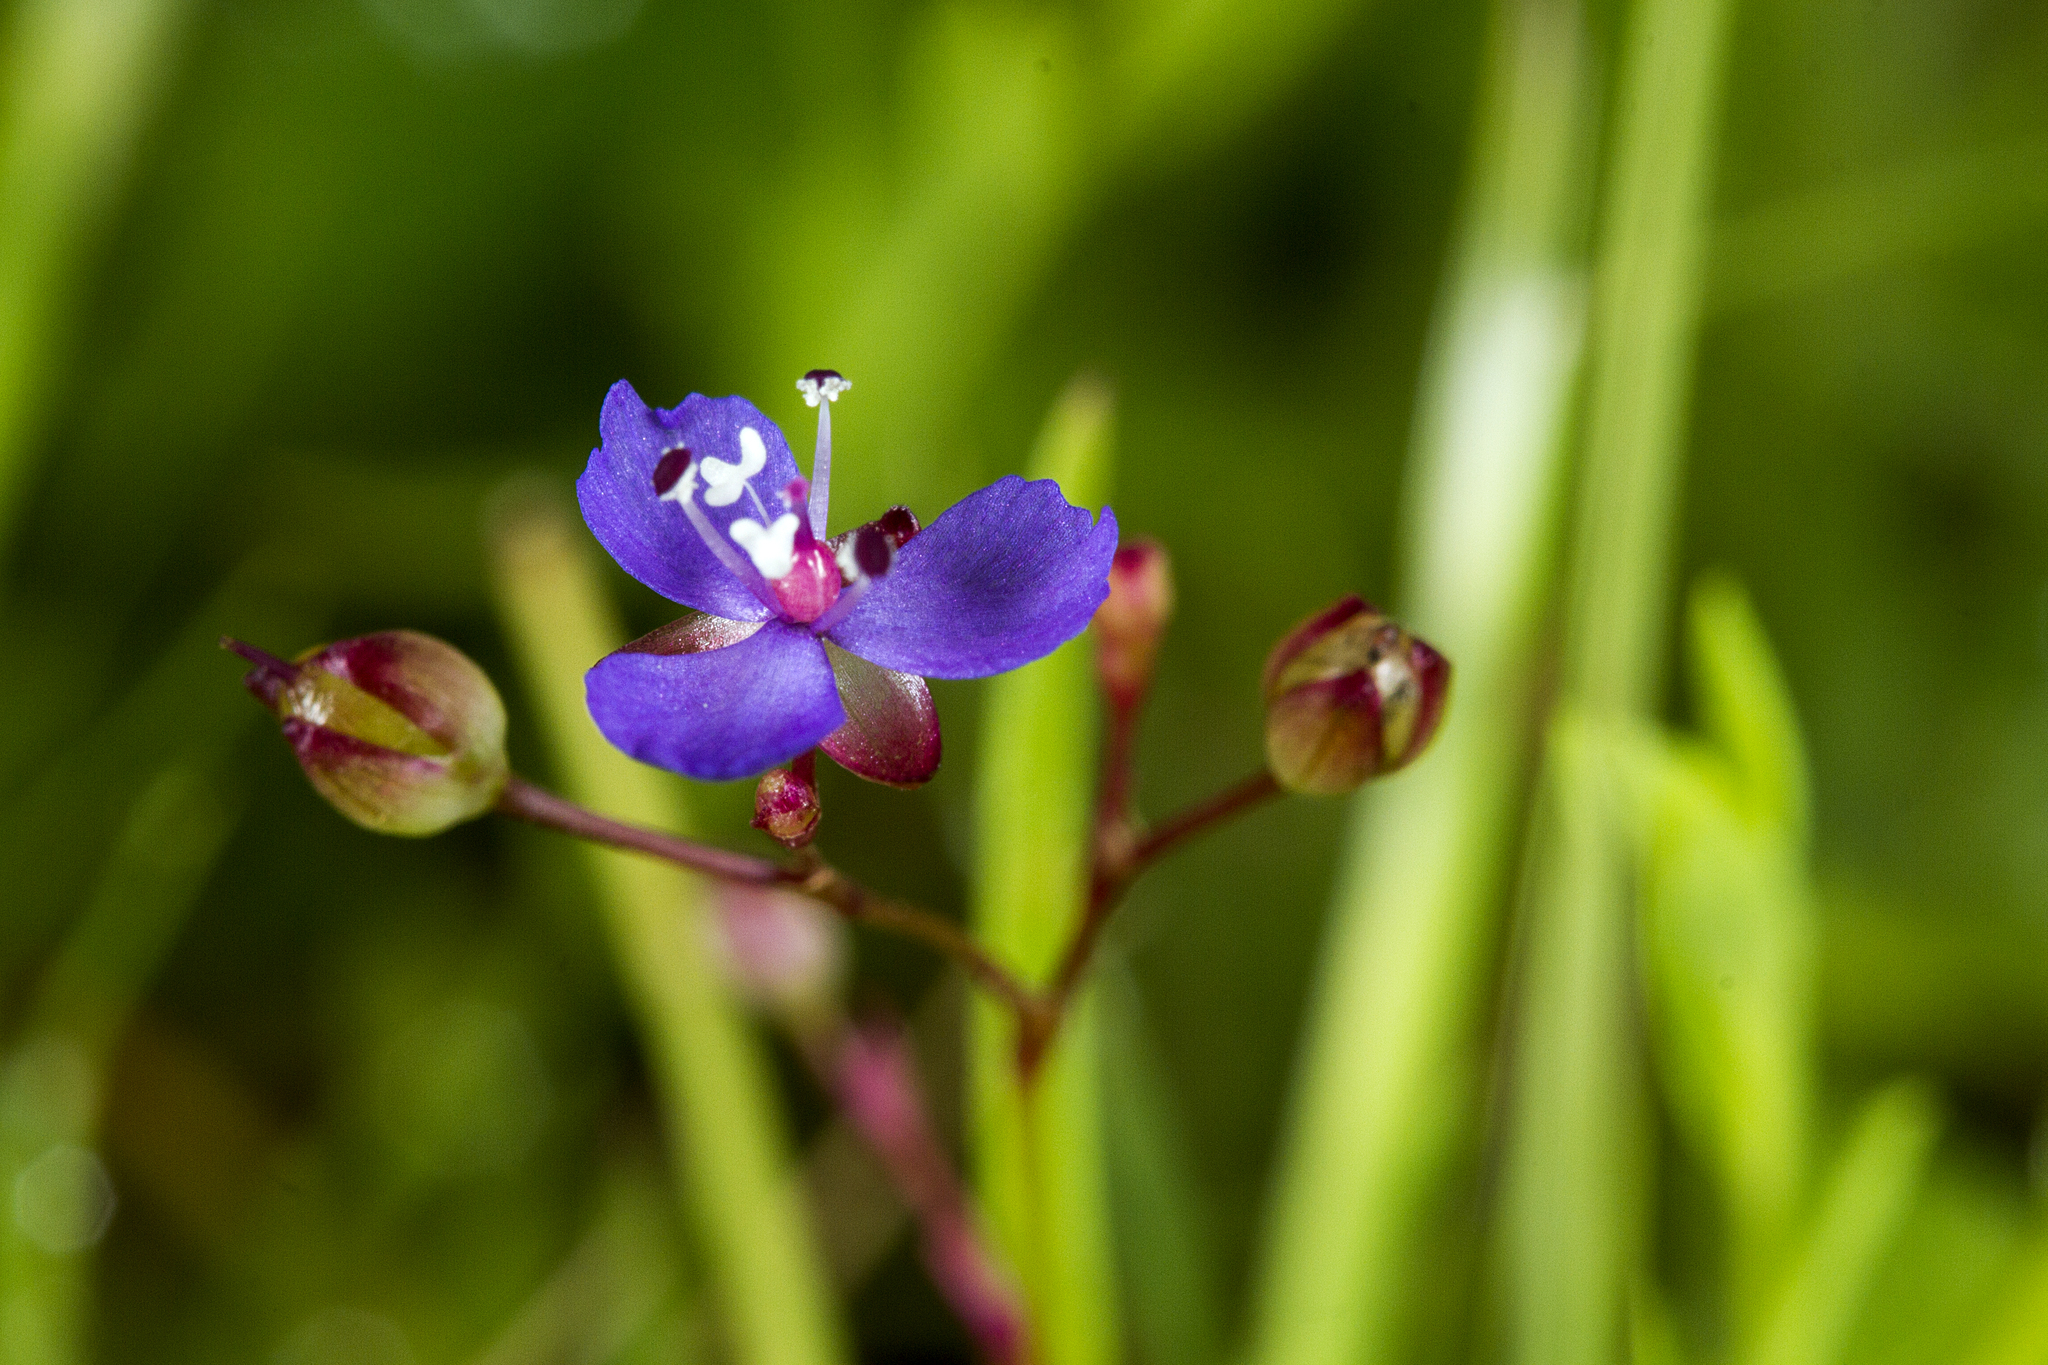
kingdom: Plantae
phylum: Tracheophyta
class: Liliopsida
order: Commelinales
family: Commelinaceae
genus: Murdannia
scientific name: Murdannia semiteres
